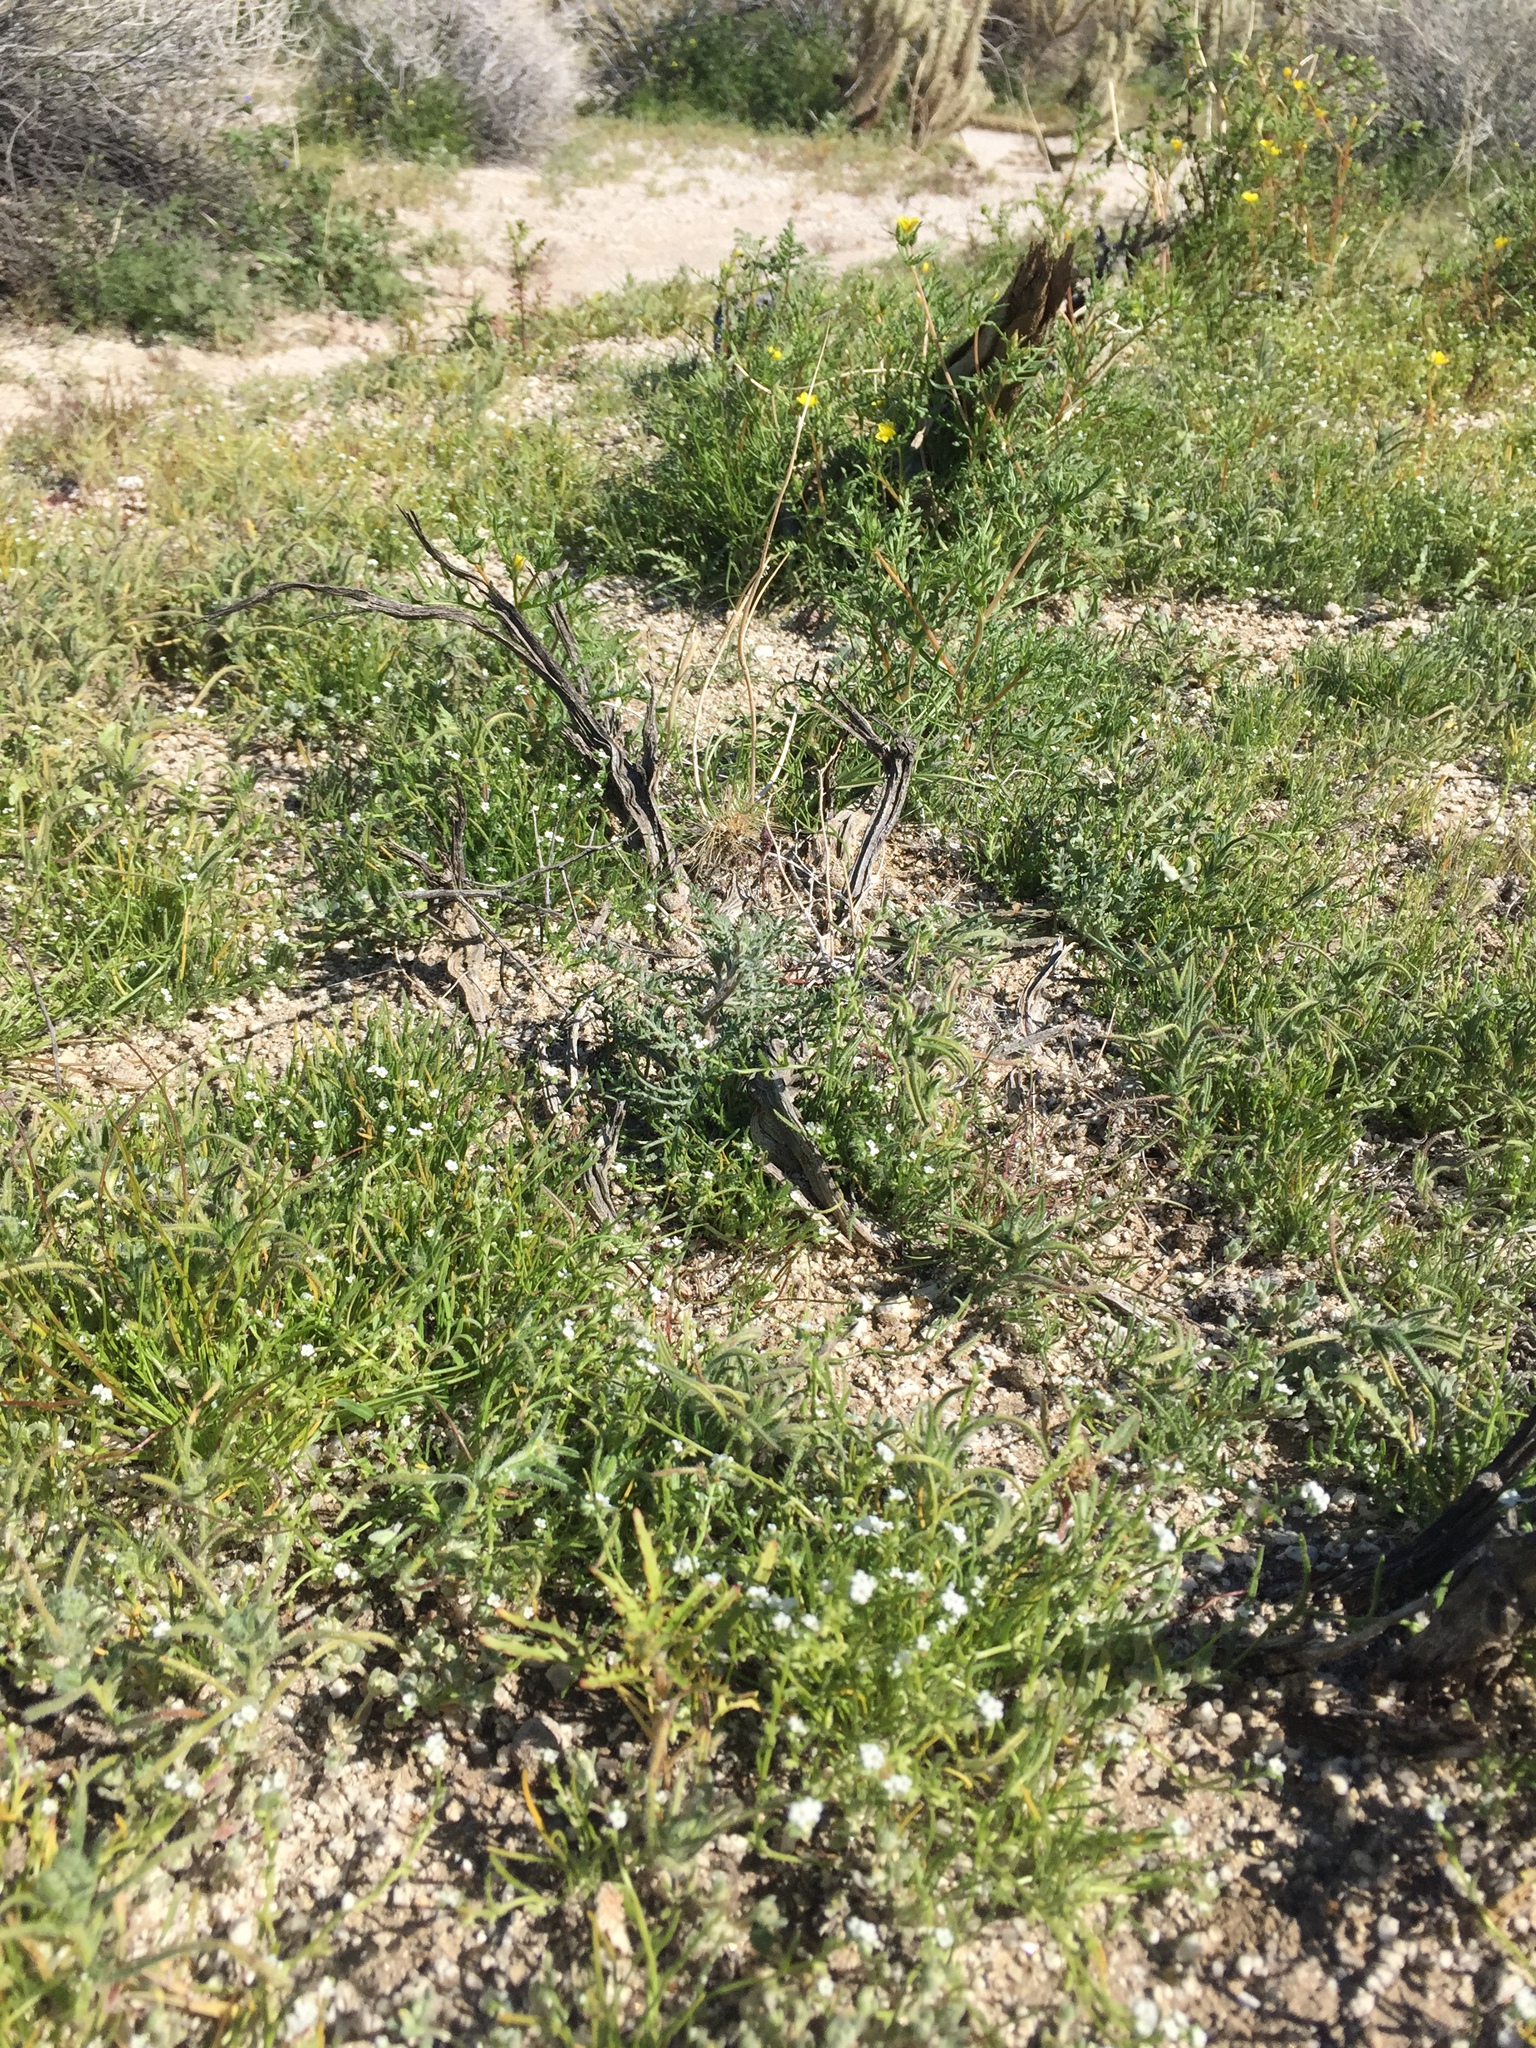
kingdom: Plantae
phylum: Tracheophyta
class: Magnoliopsida
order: Boraginales
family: Boraginaceae
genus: Pectocarya
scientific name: Pectocarya peninsularis
